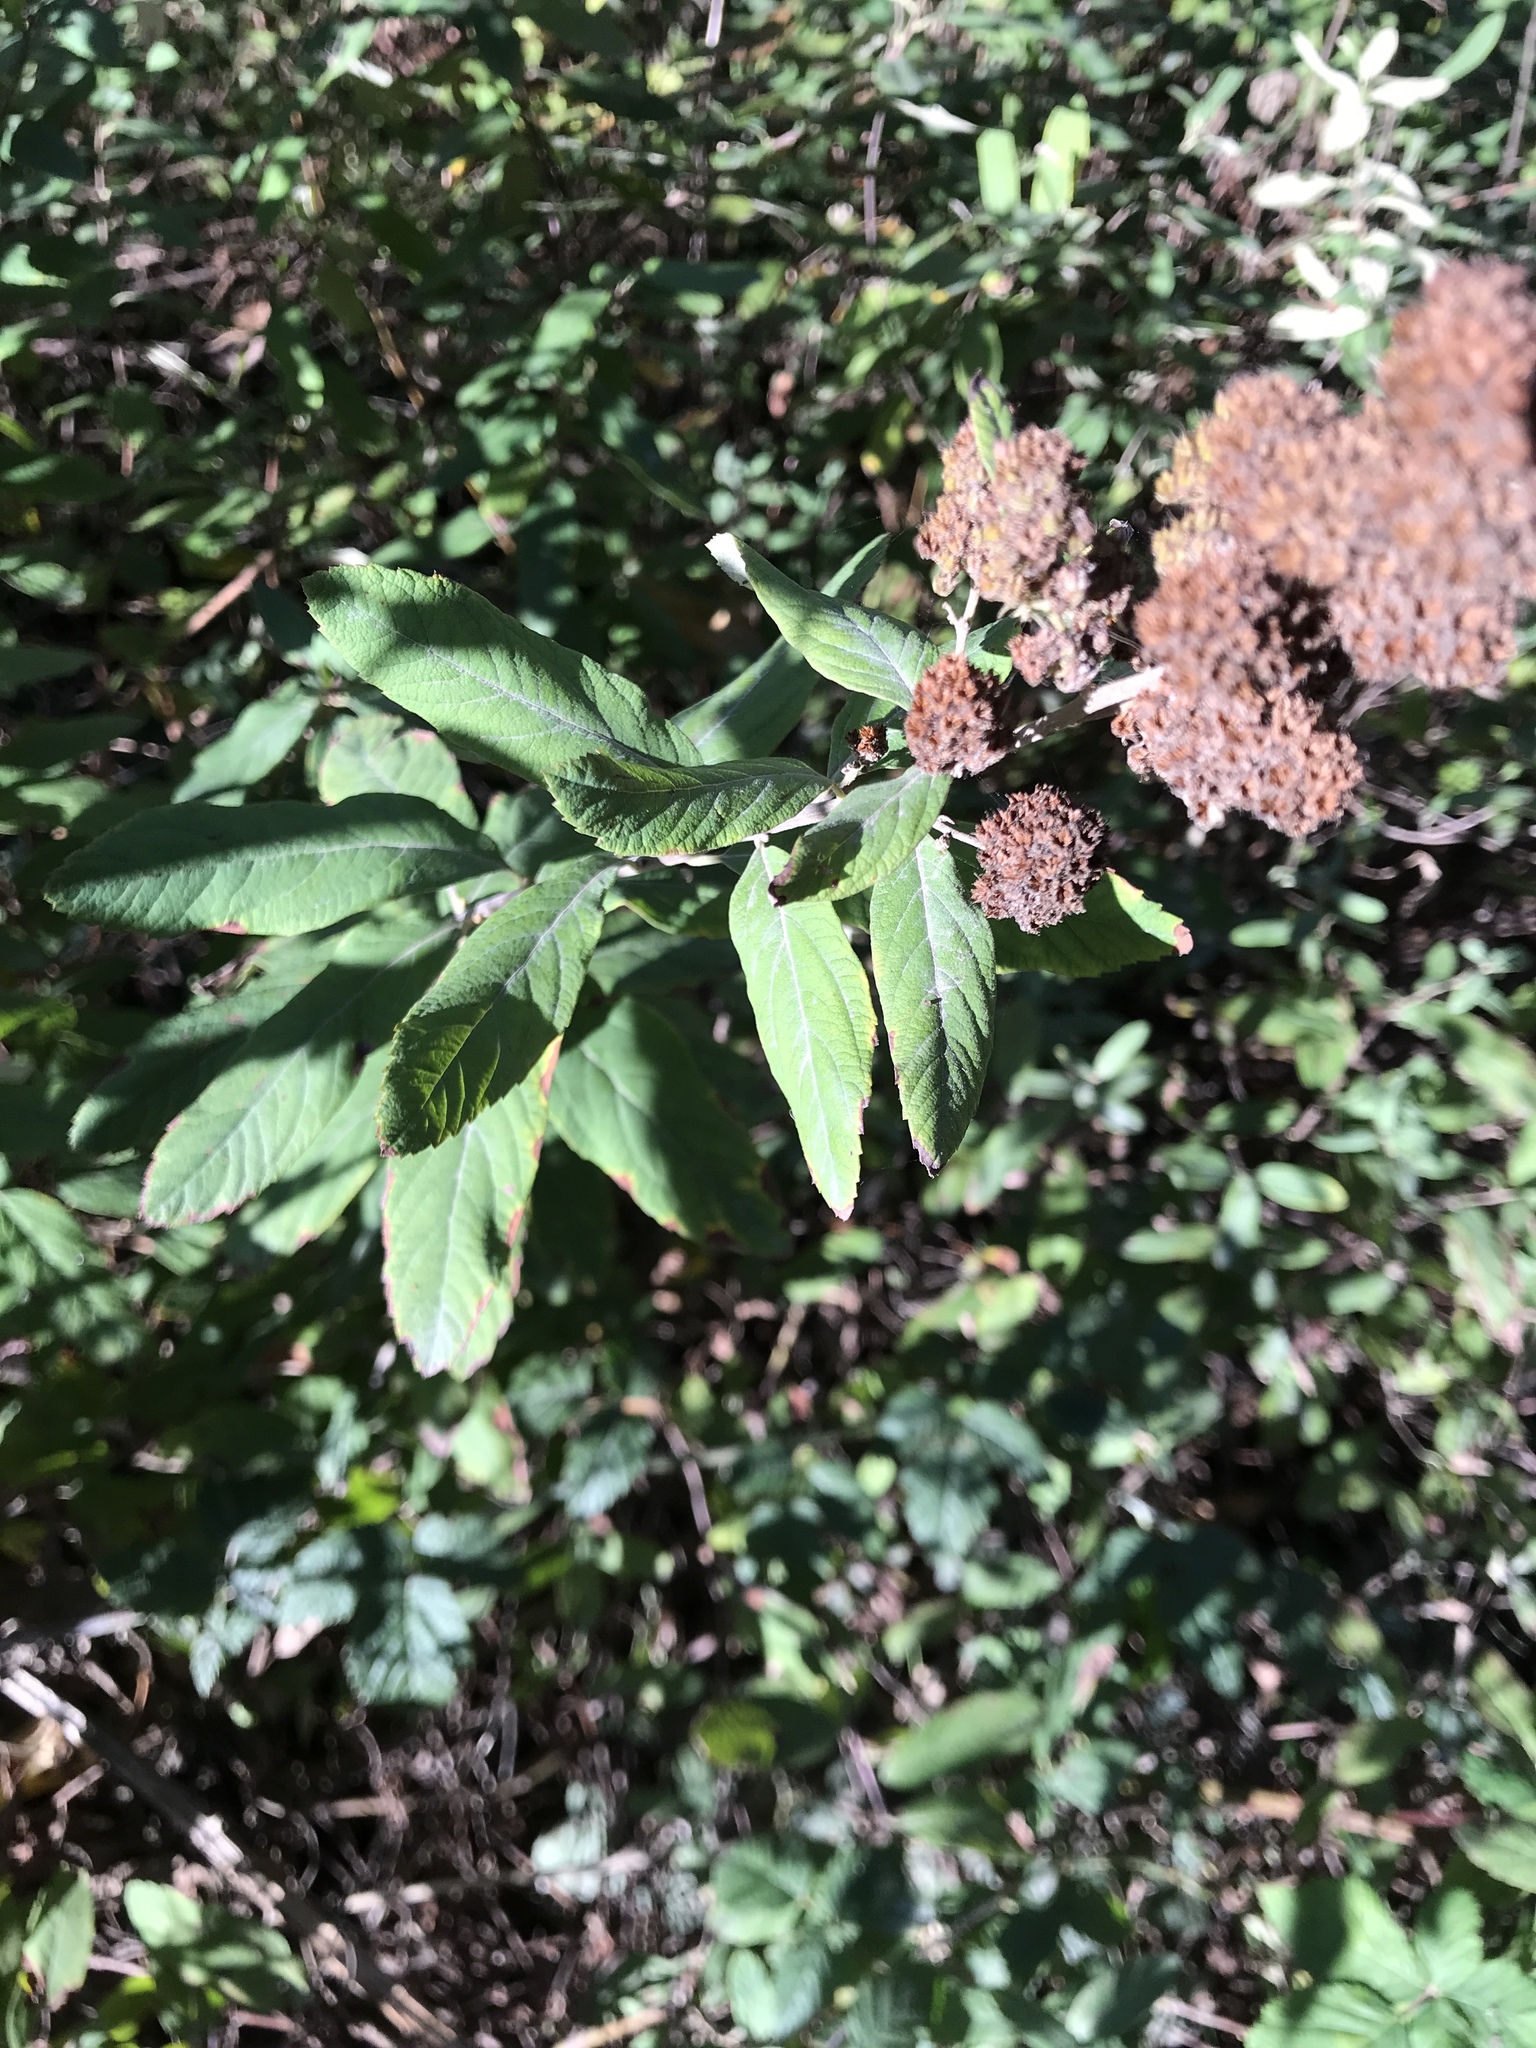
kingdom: Plantae
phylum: Tracheophyta
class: Magnoliopsida
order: Rosales
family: Rosaceae
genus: Spiraea
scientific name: Spiraea douglasii
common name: Steeplebush
